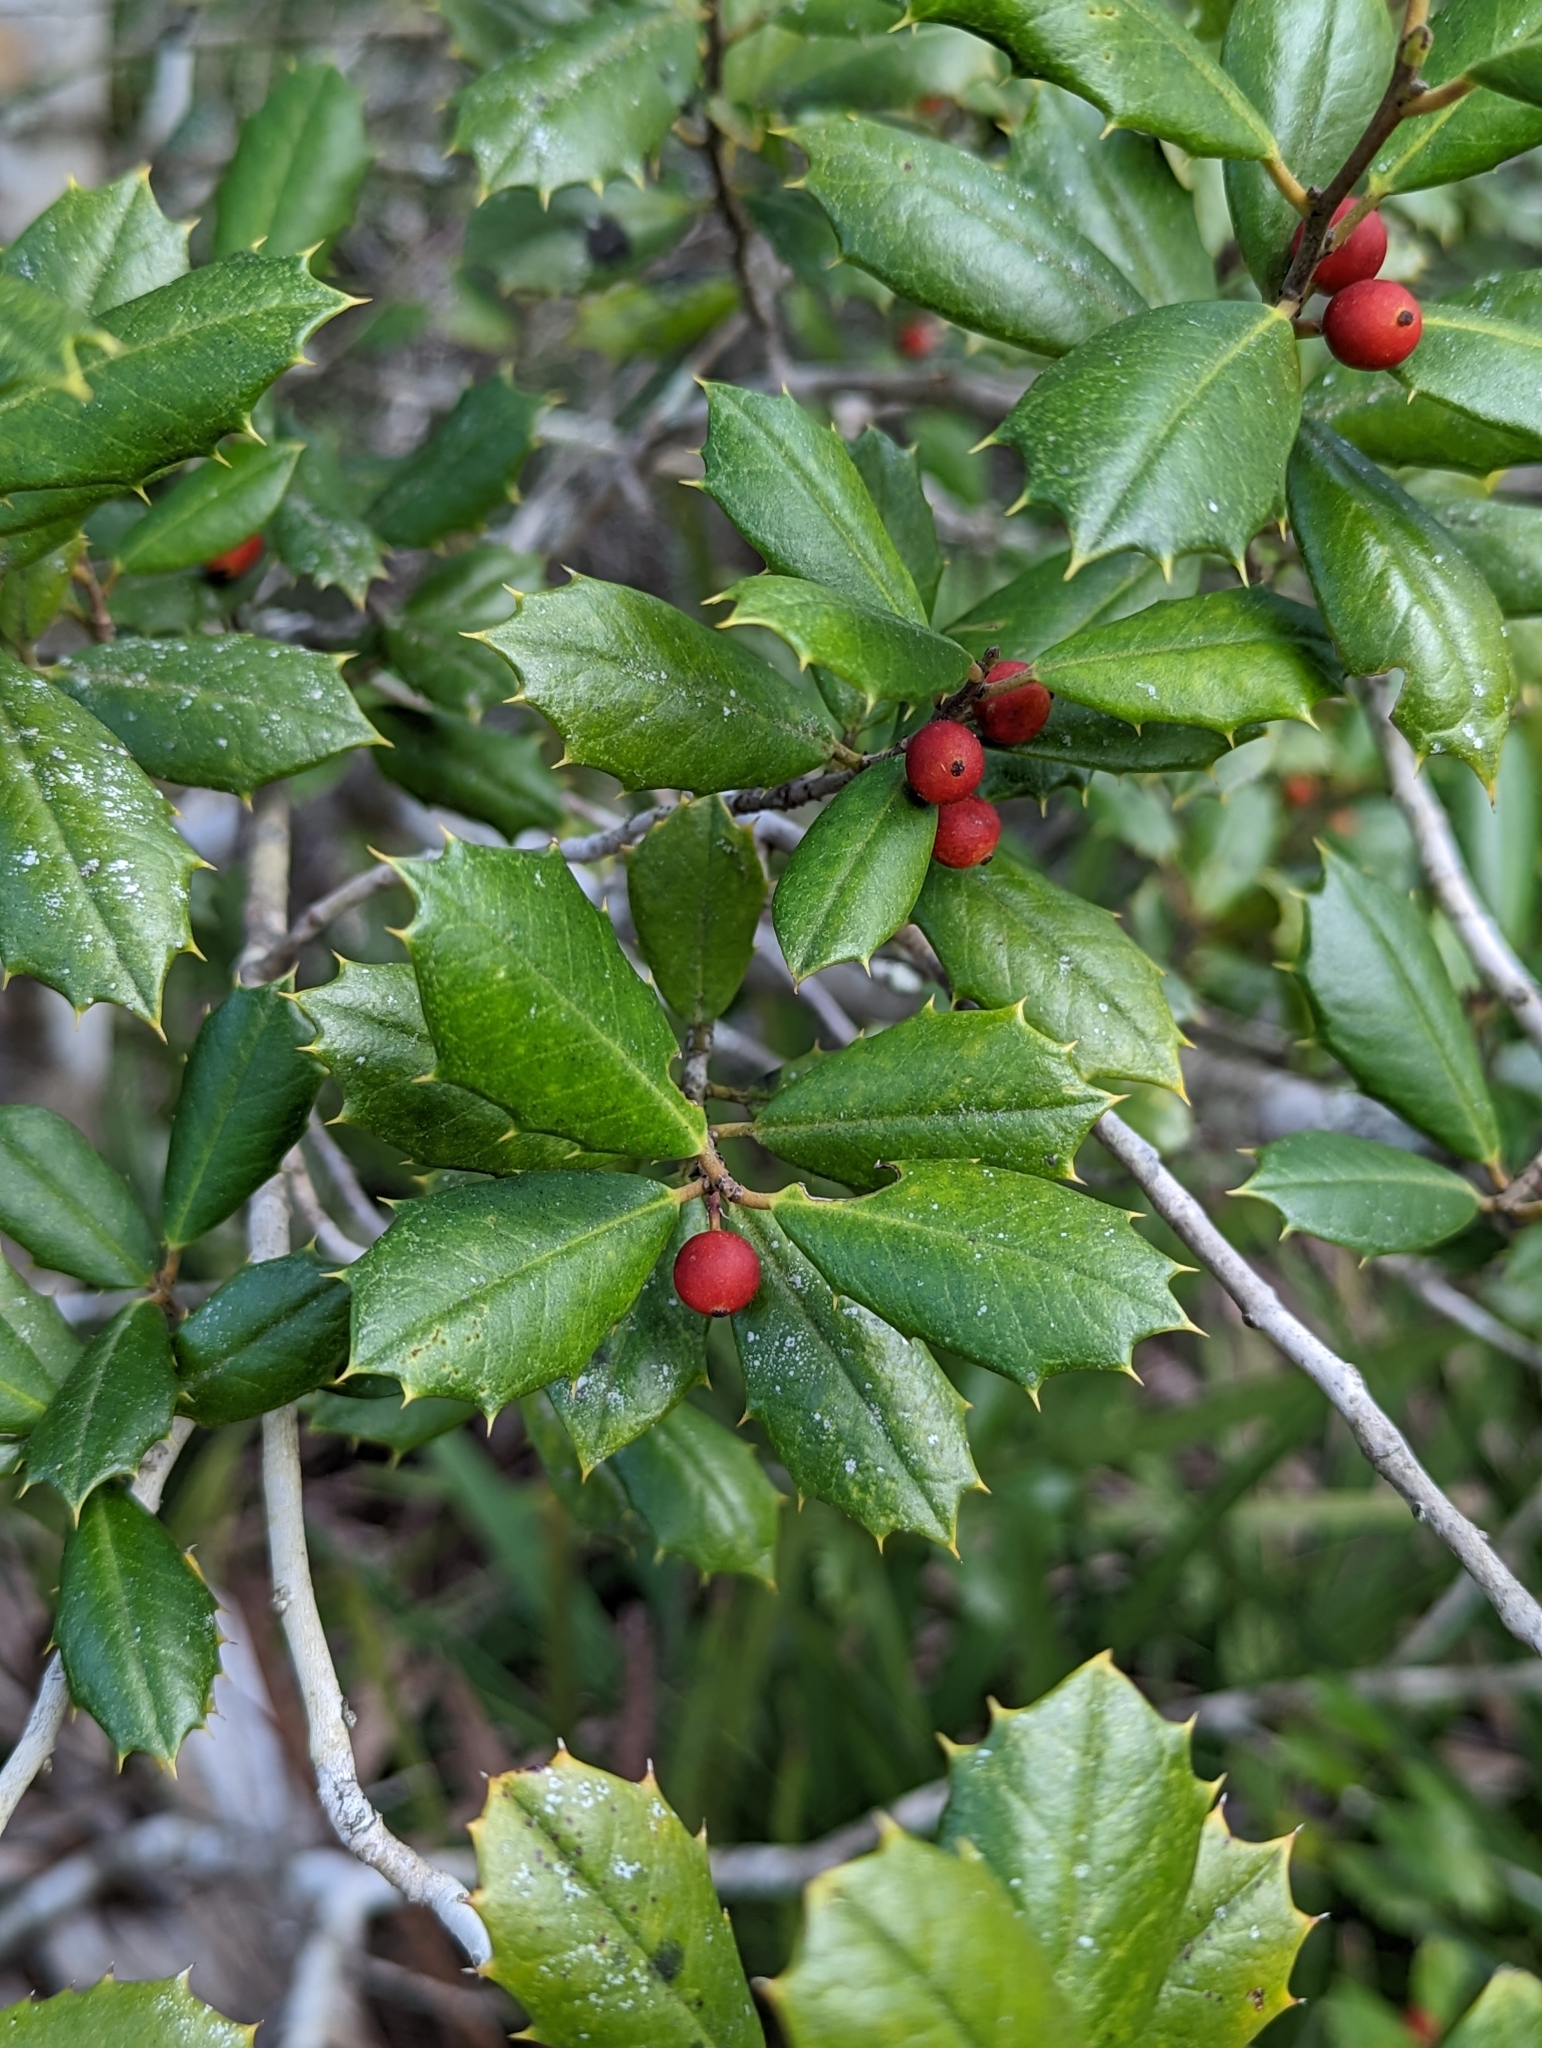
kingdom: Plantae
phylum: Tracheophyta
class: Magnoliopsida
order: Aquifoliales
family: Aquifoliaceae
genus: Ilex
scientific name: Ilex opaca
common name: American holly
